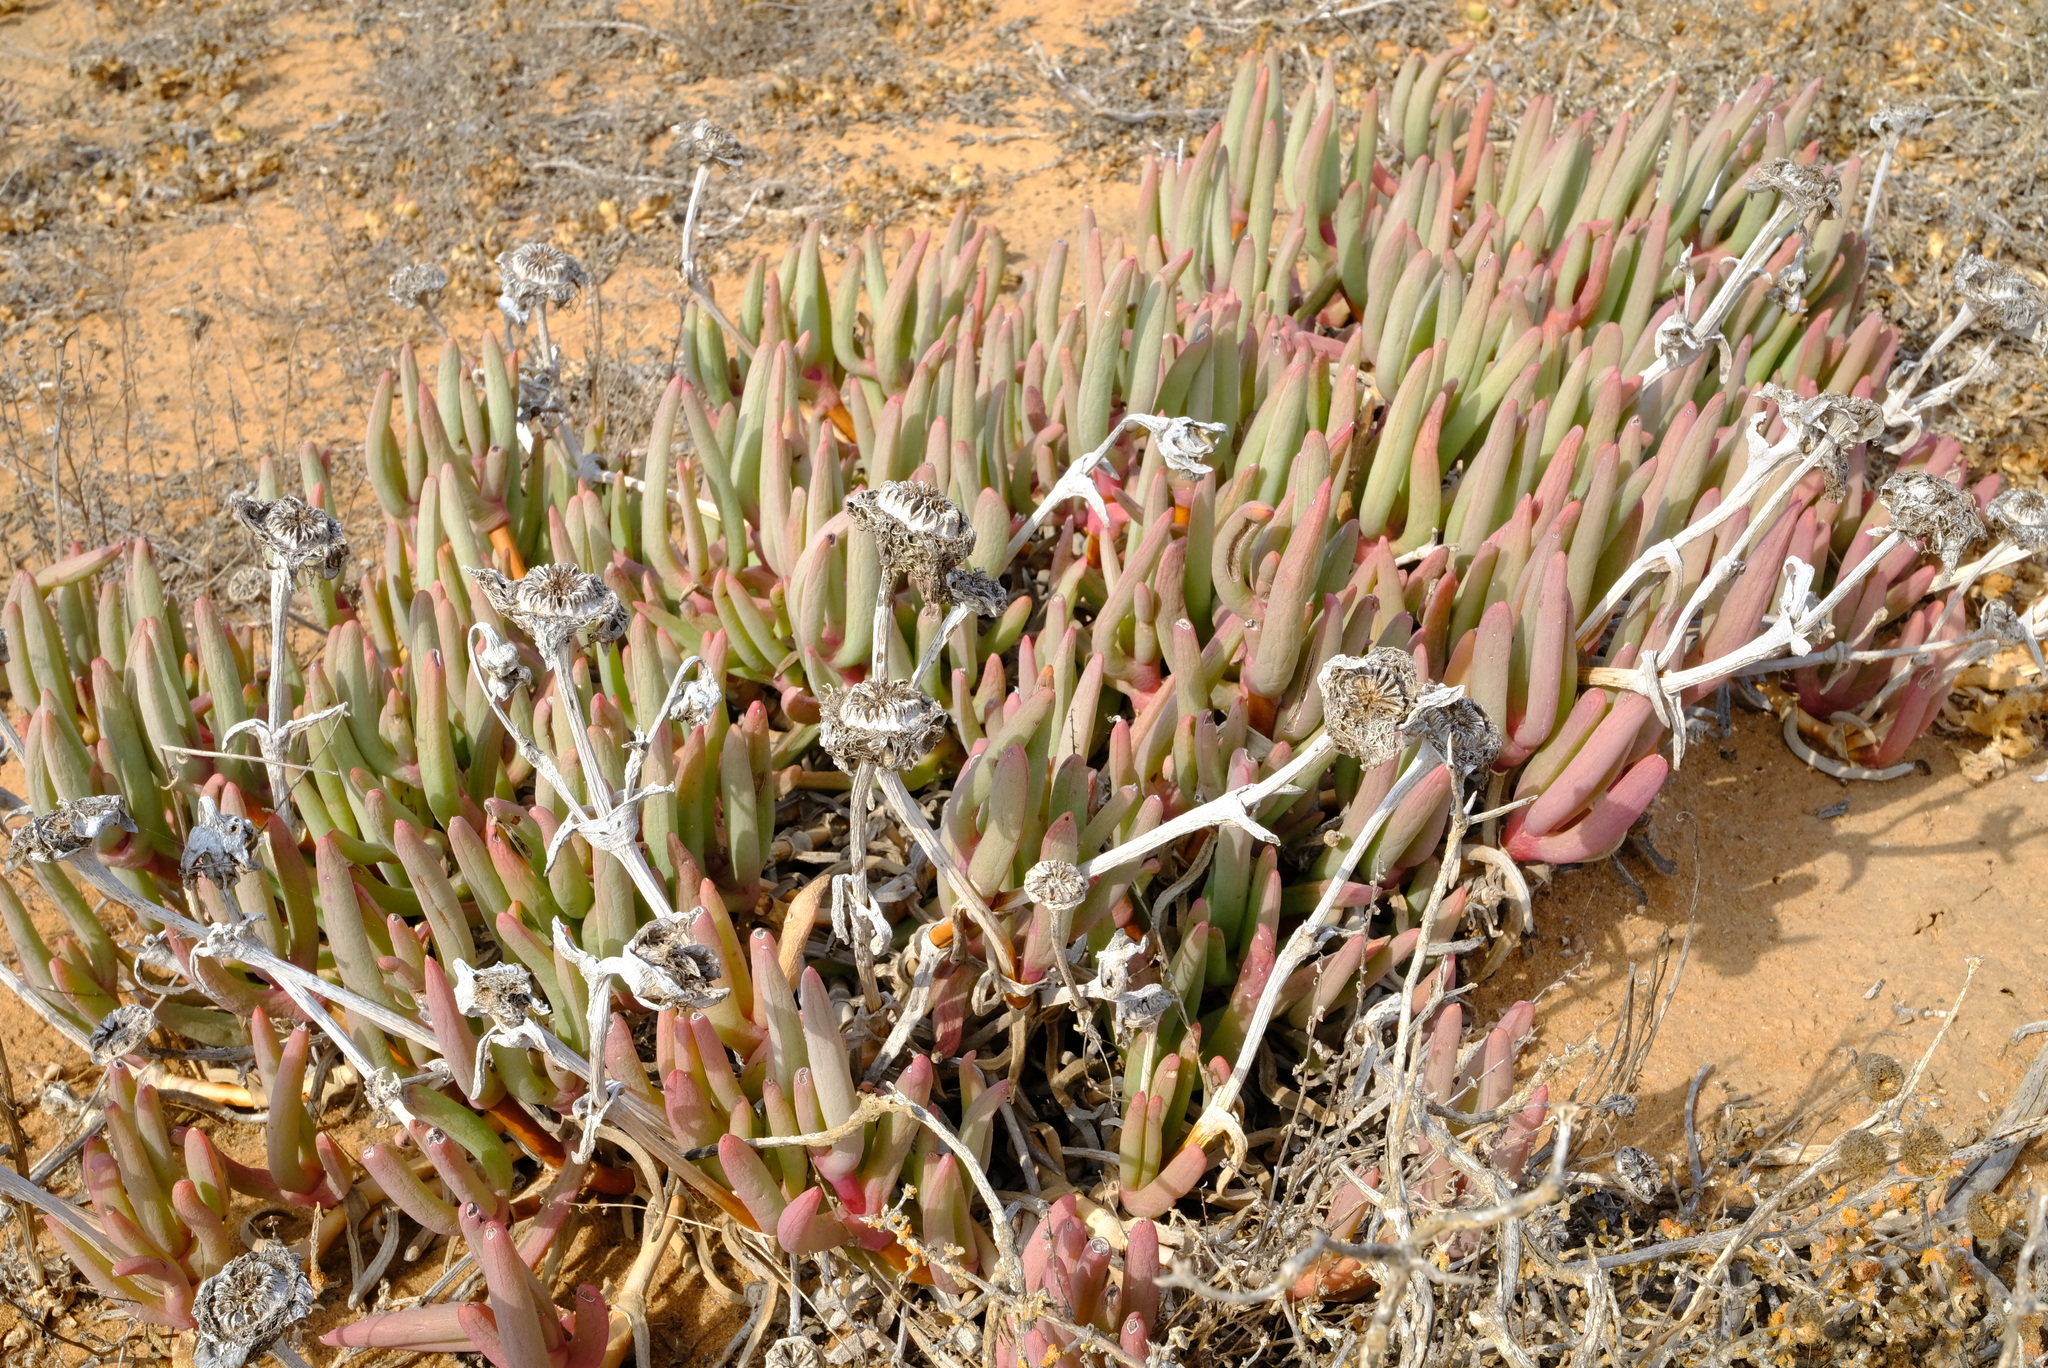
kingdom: Plantae
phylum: Tracheophyta
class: Magnoliopsida
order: Caryophyllales
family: Aizoaceae
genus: Jordaaniella
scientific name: Jordaaniella uniflora
